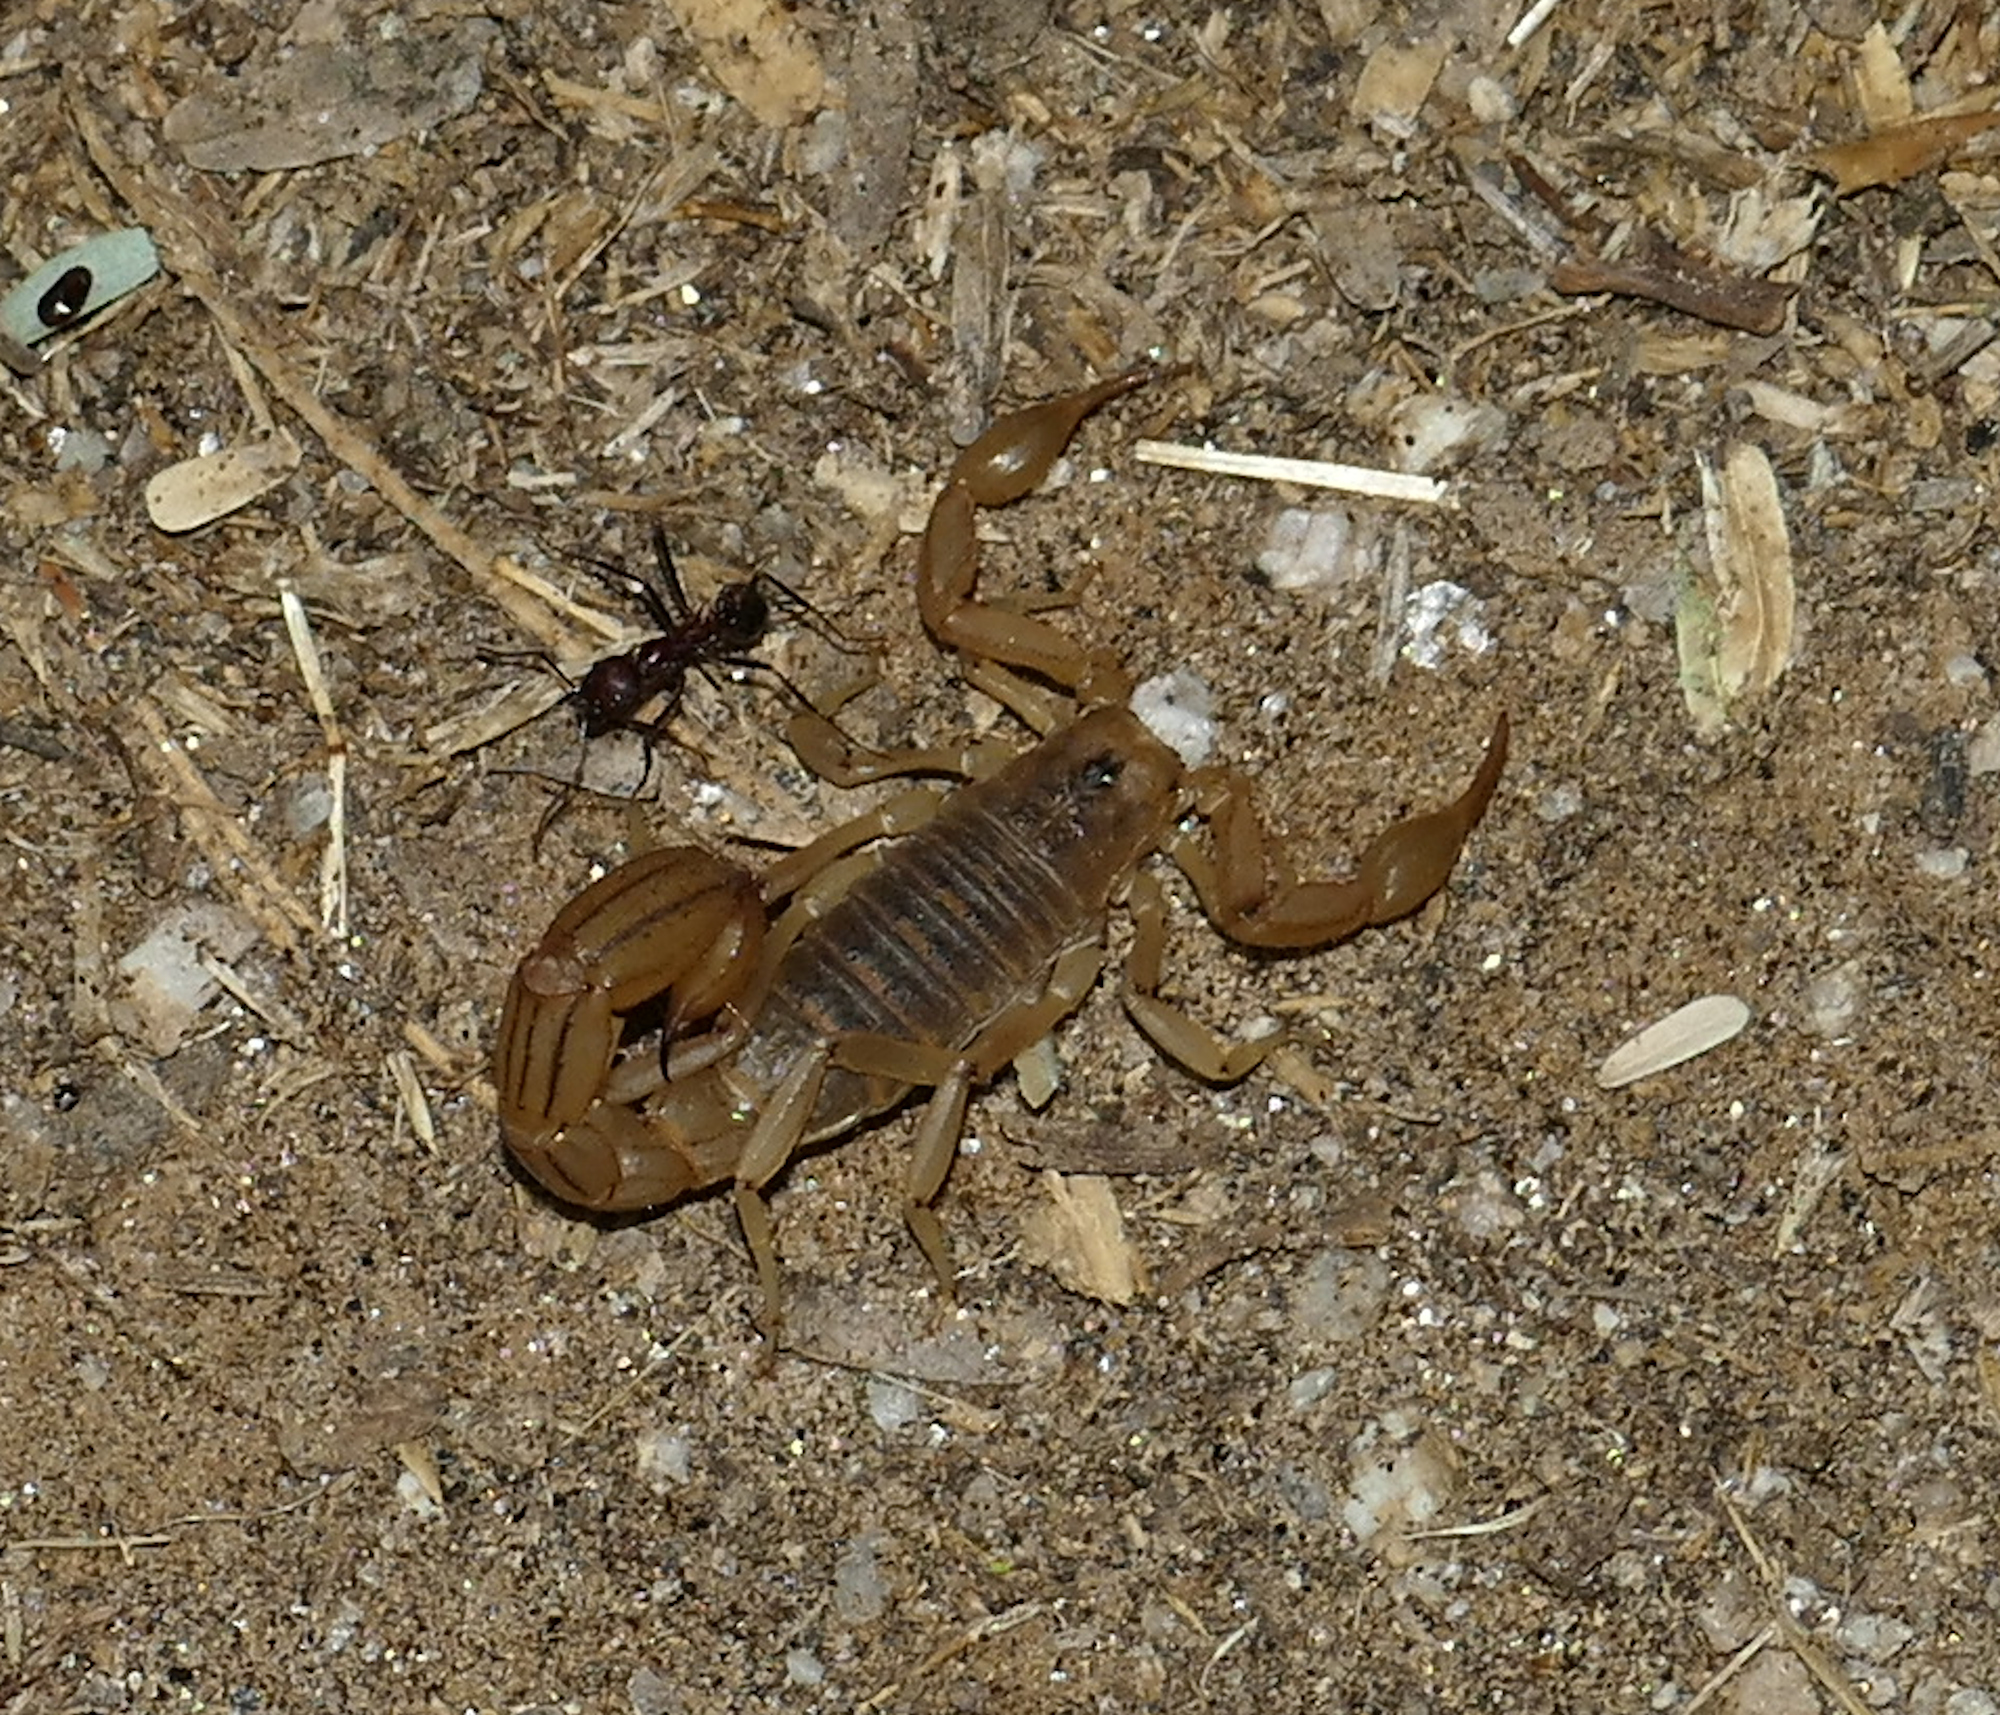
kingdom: Animalia
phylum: Arthropoda
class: Arachnida
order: Scorpiones
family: Vaejovidae
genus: Paravaejovis
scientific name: Paravaejovis spinigerus
